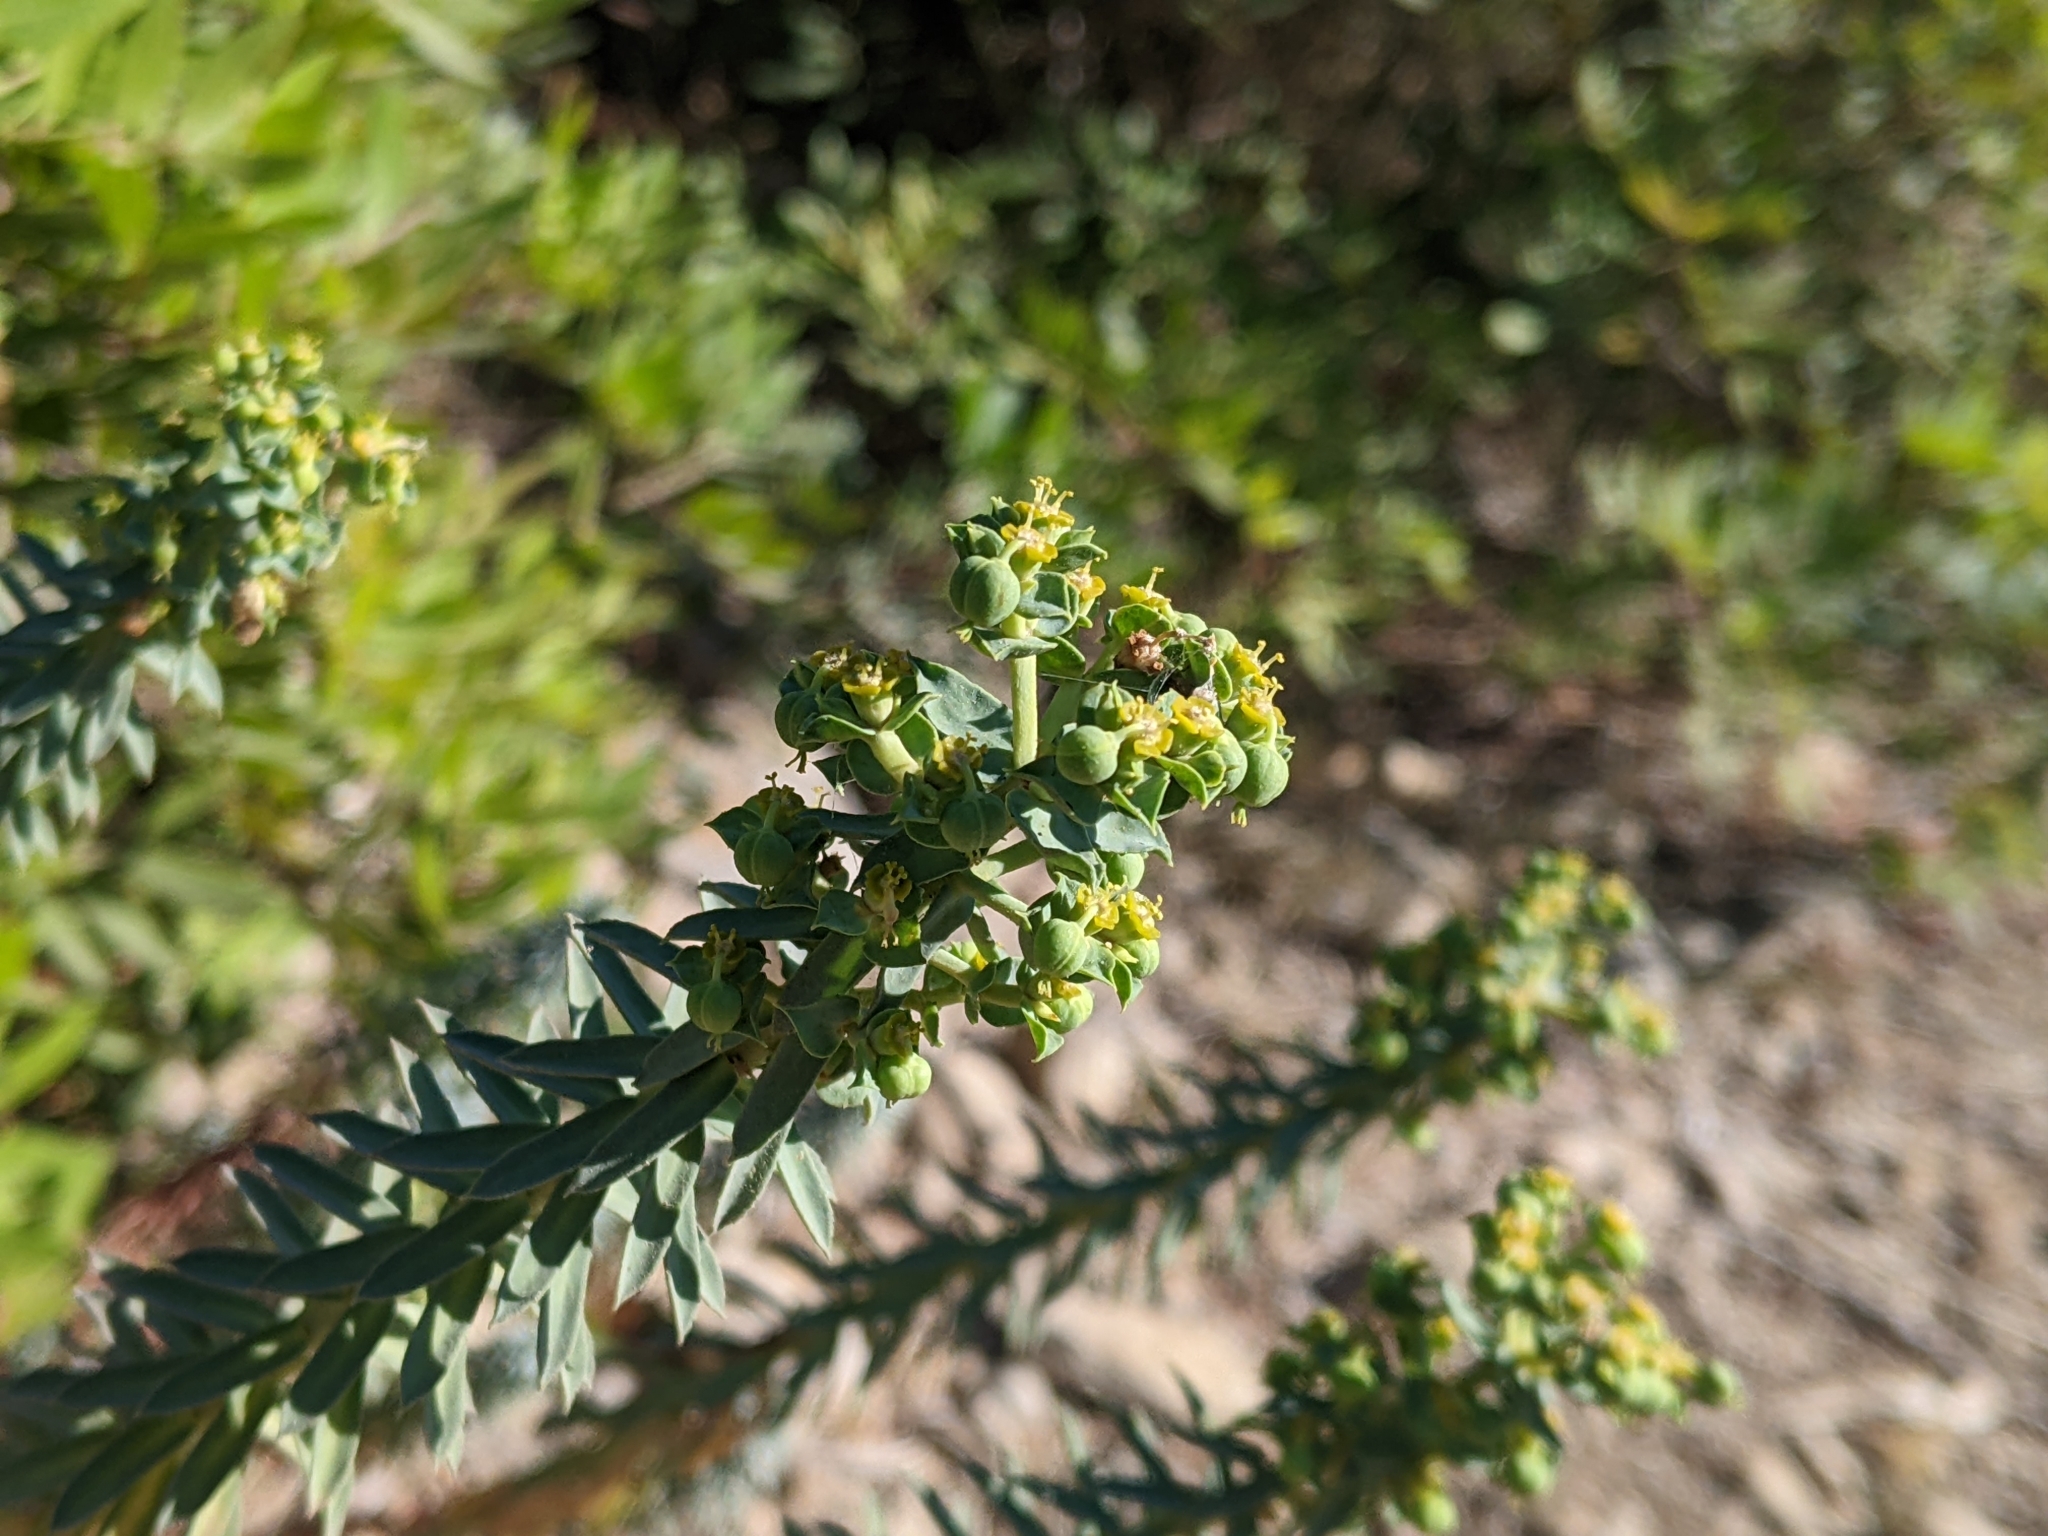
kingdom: Plantae
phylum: Tracheophyta
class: Magnoliopsida
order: Malpighiales
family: Euphorbiaceae
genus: Euphorbia
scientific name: Euphorbia paralias
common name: Sea spurge
